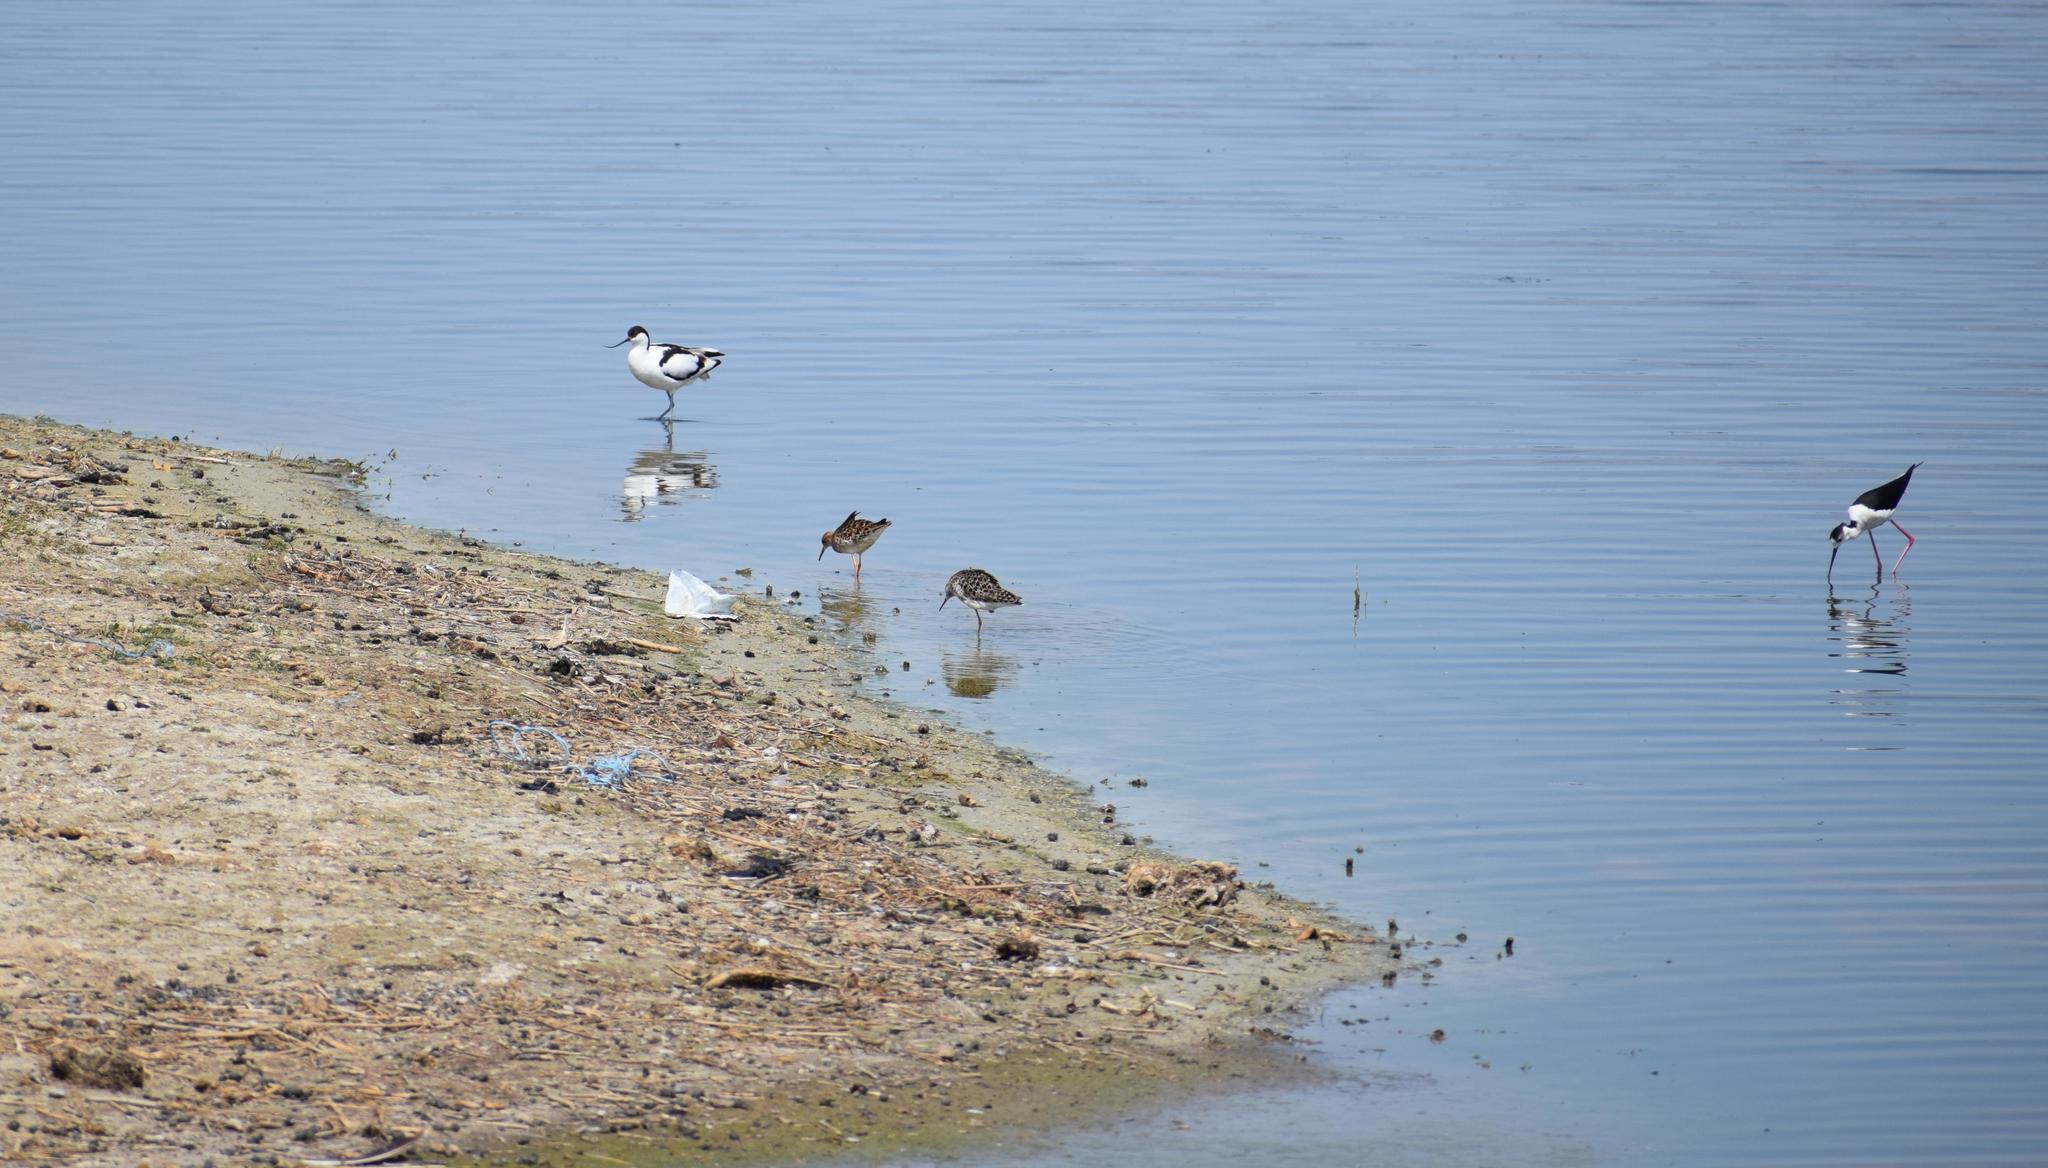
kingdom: Animalia
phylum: Chordata
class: Aves
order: Charadriiformes
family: Recurvirostridae
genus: Recurvirostra
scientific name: Recurvirostra avosetta
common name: Pied avocet
